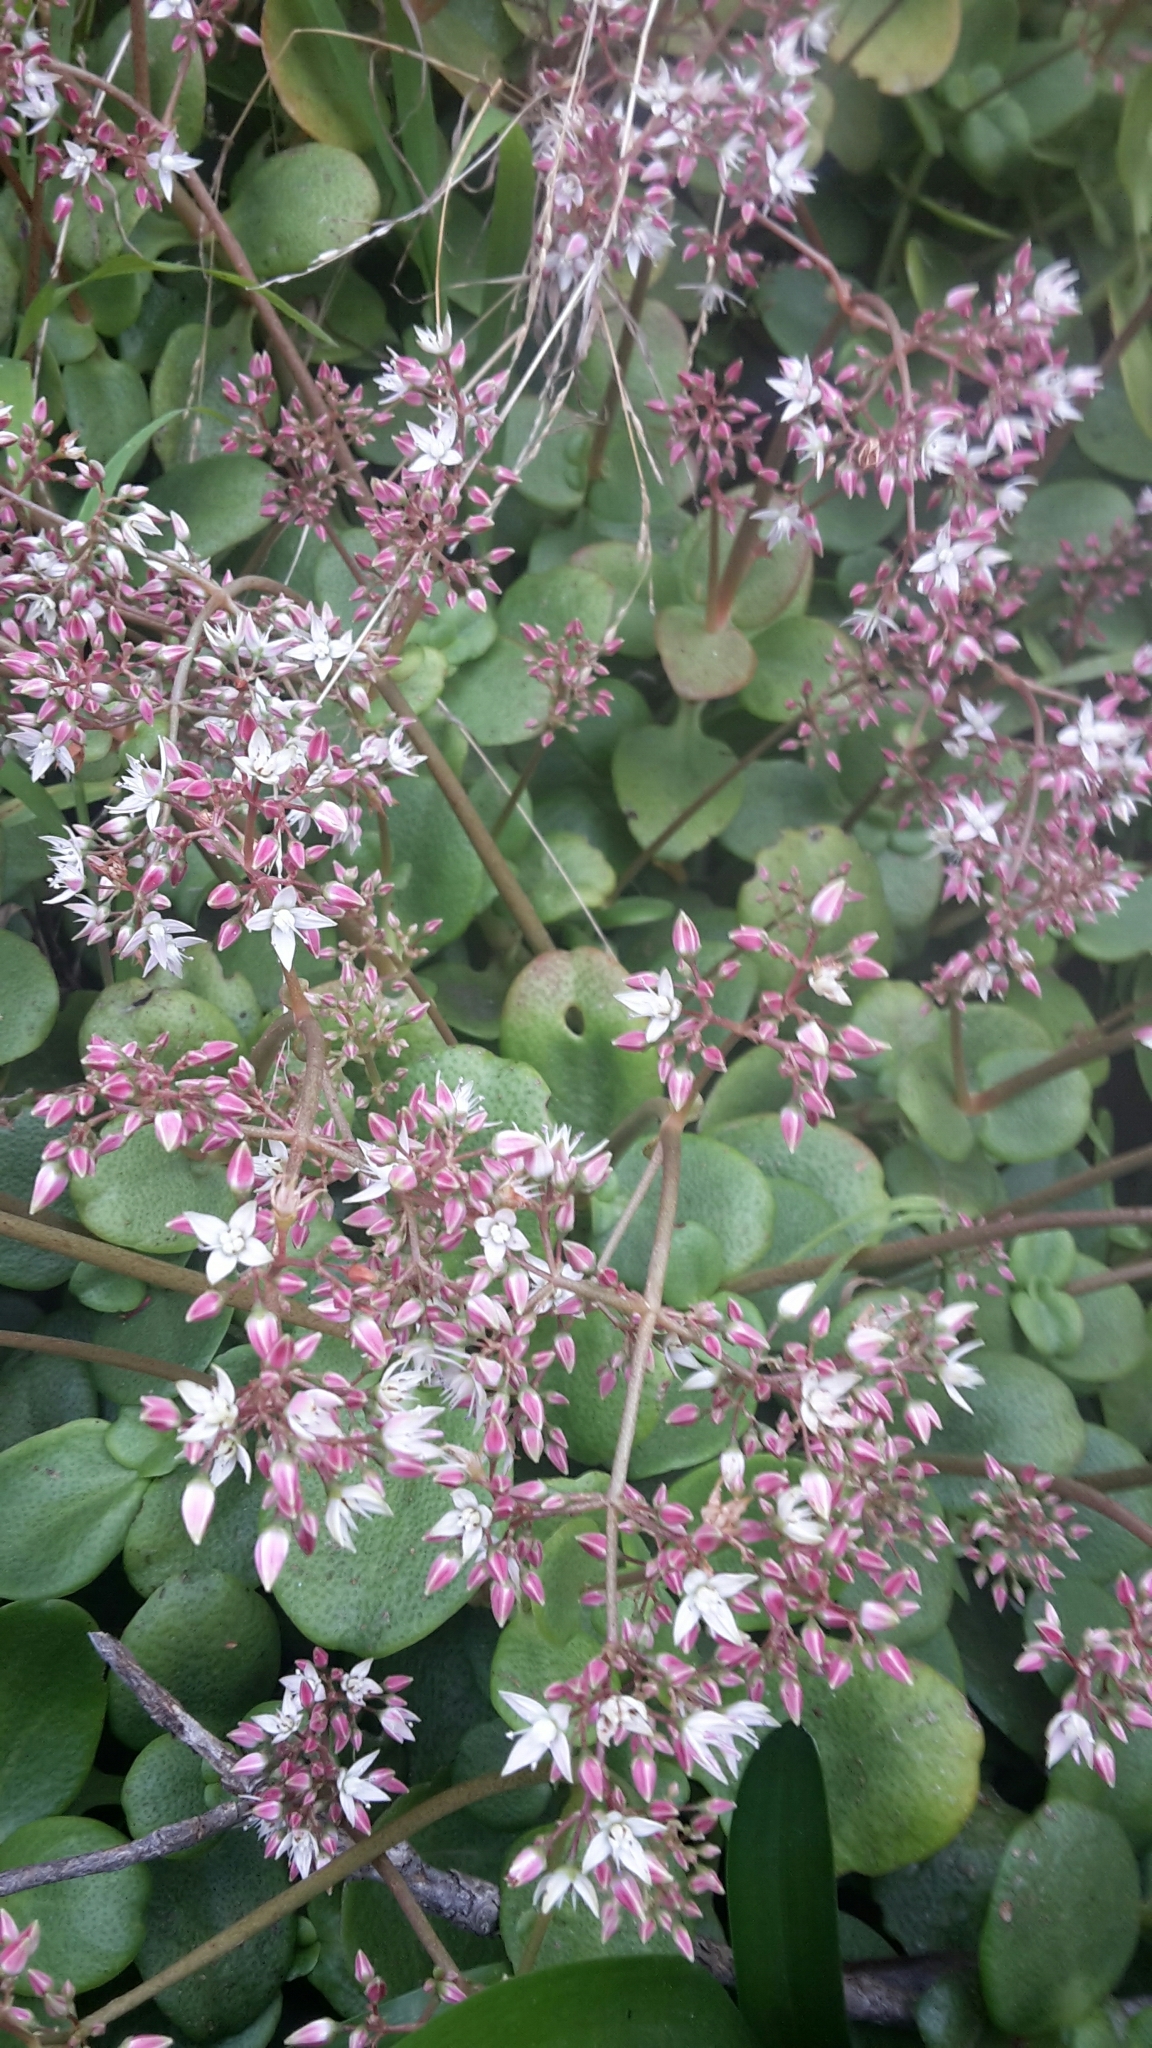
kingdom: Plantae
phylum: Tracheophyta
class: Magnoliopsida
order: Saxifragales
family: Crassulaceae
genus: Crassula
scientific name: Crassula multicava
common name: Cape province pygmyweed
